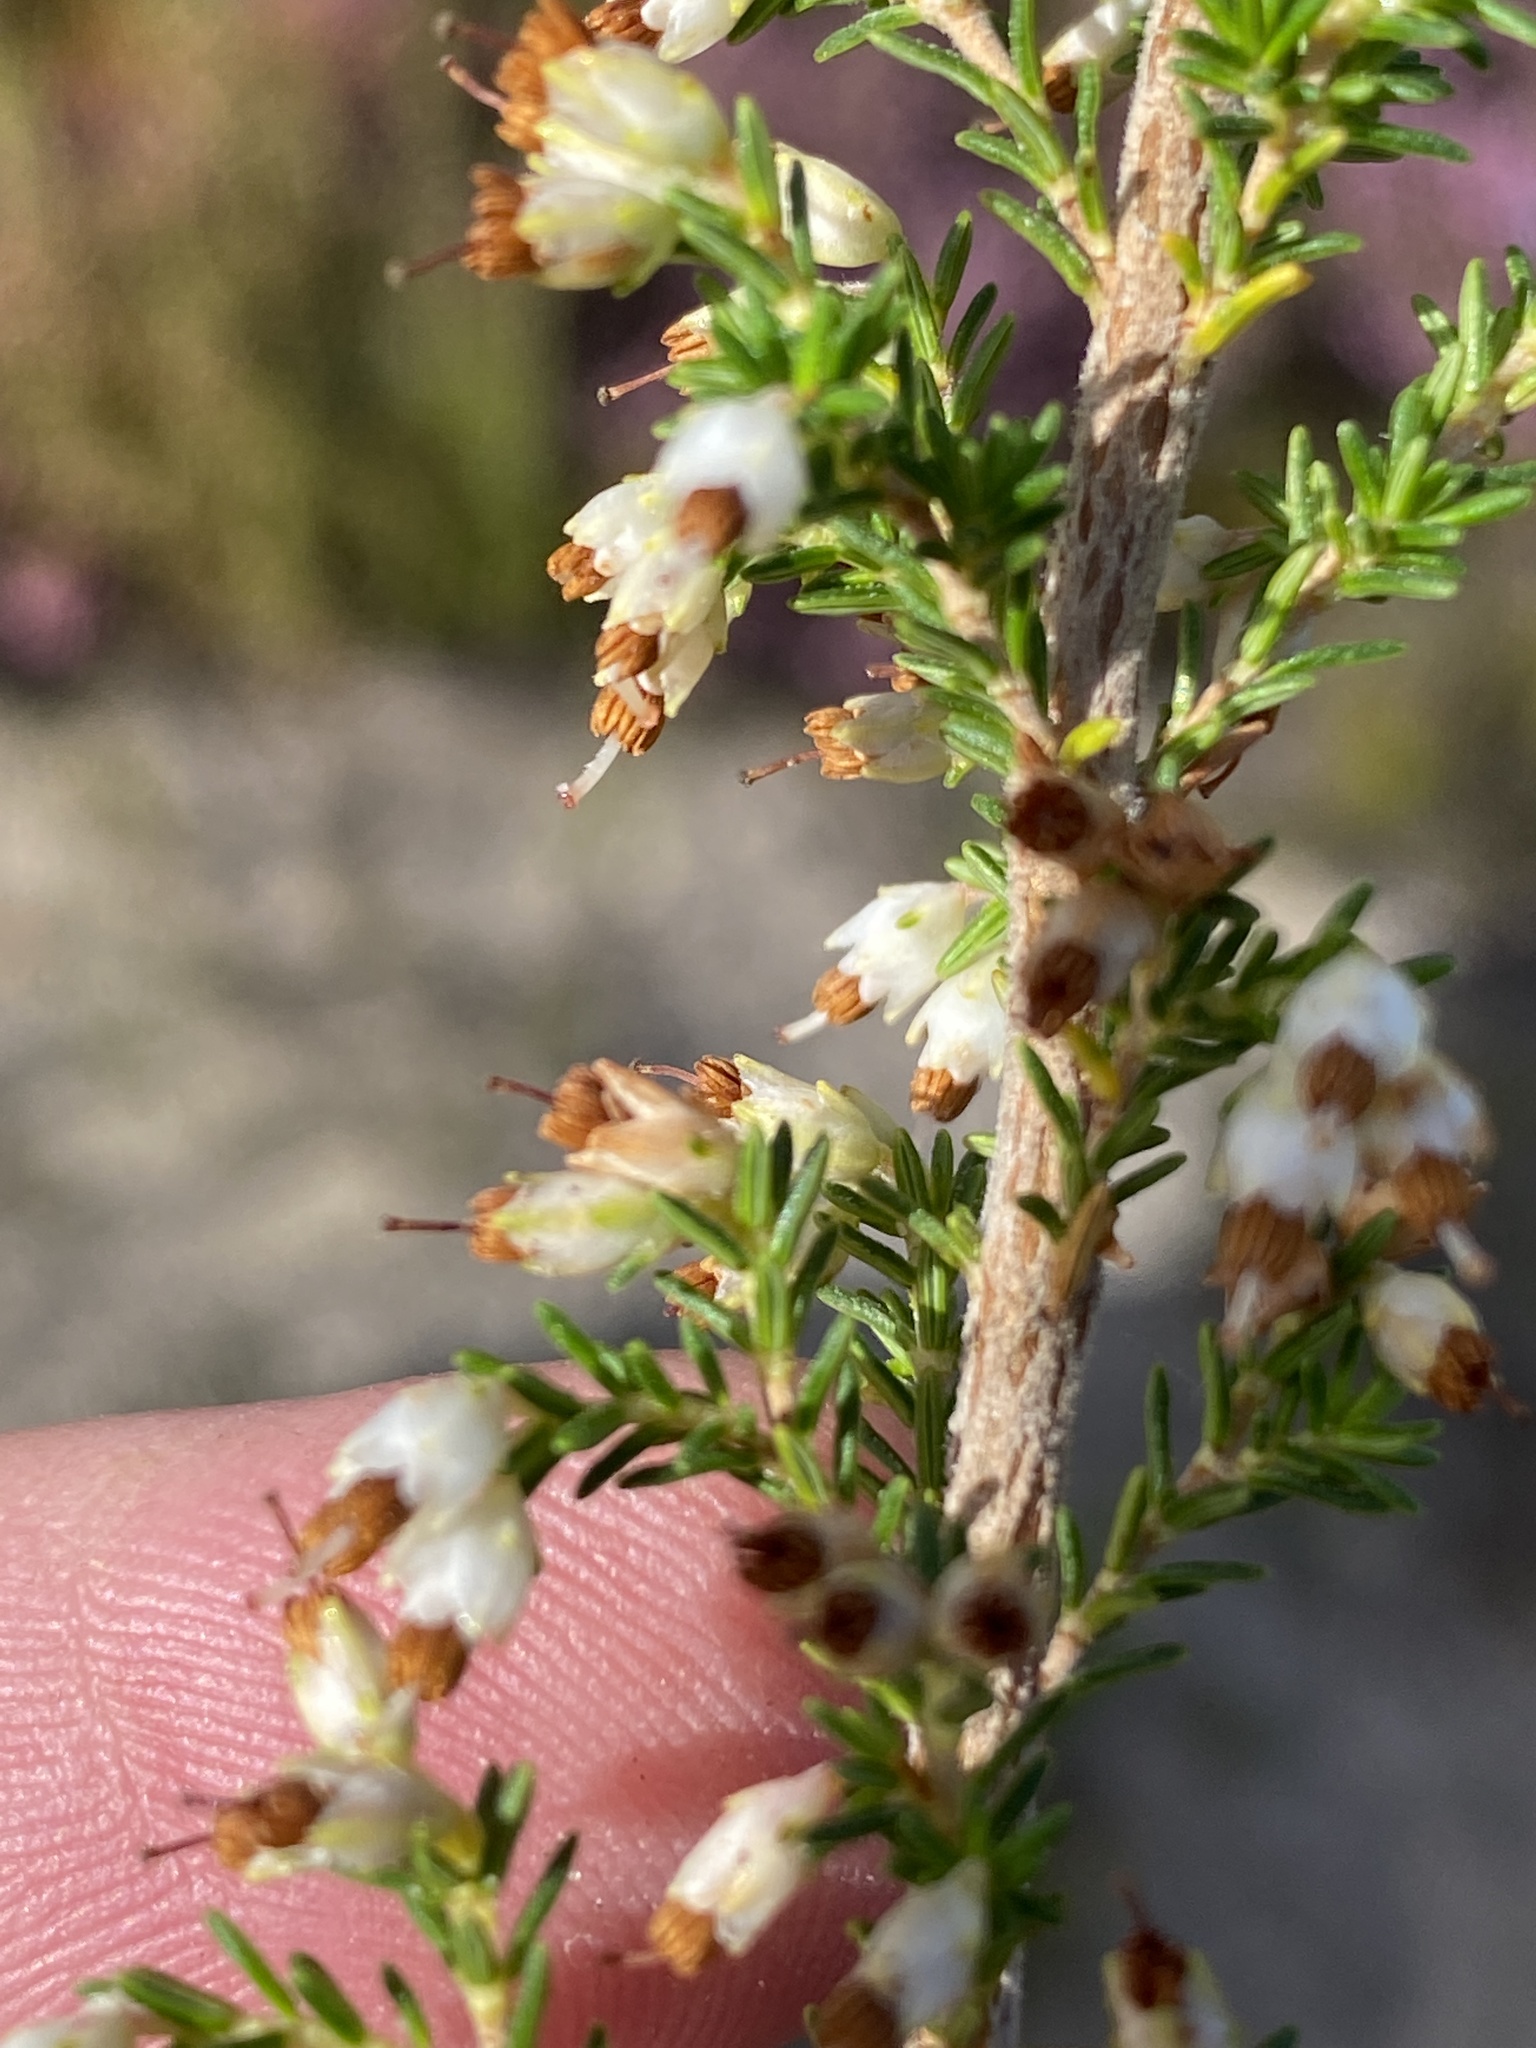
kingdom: Plantae
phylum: Tracheophyta
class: Magnoliopsida
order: Ericales
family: Ericaceae
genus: Erica
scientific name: Erica lasciva
